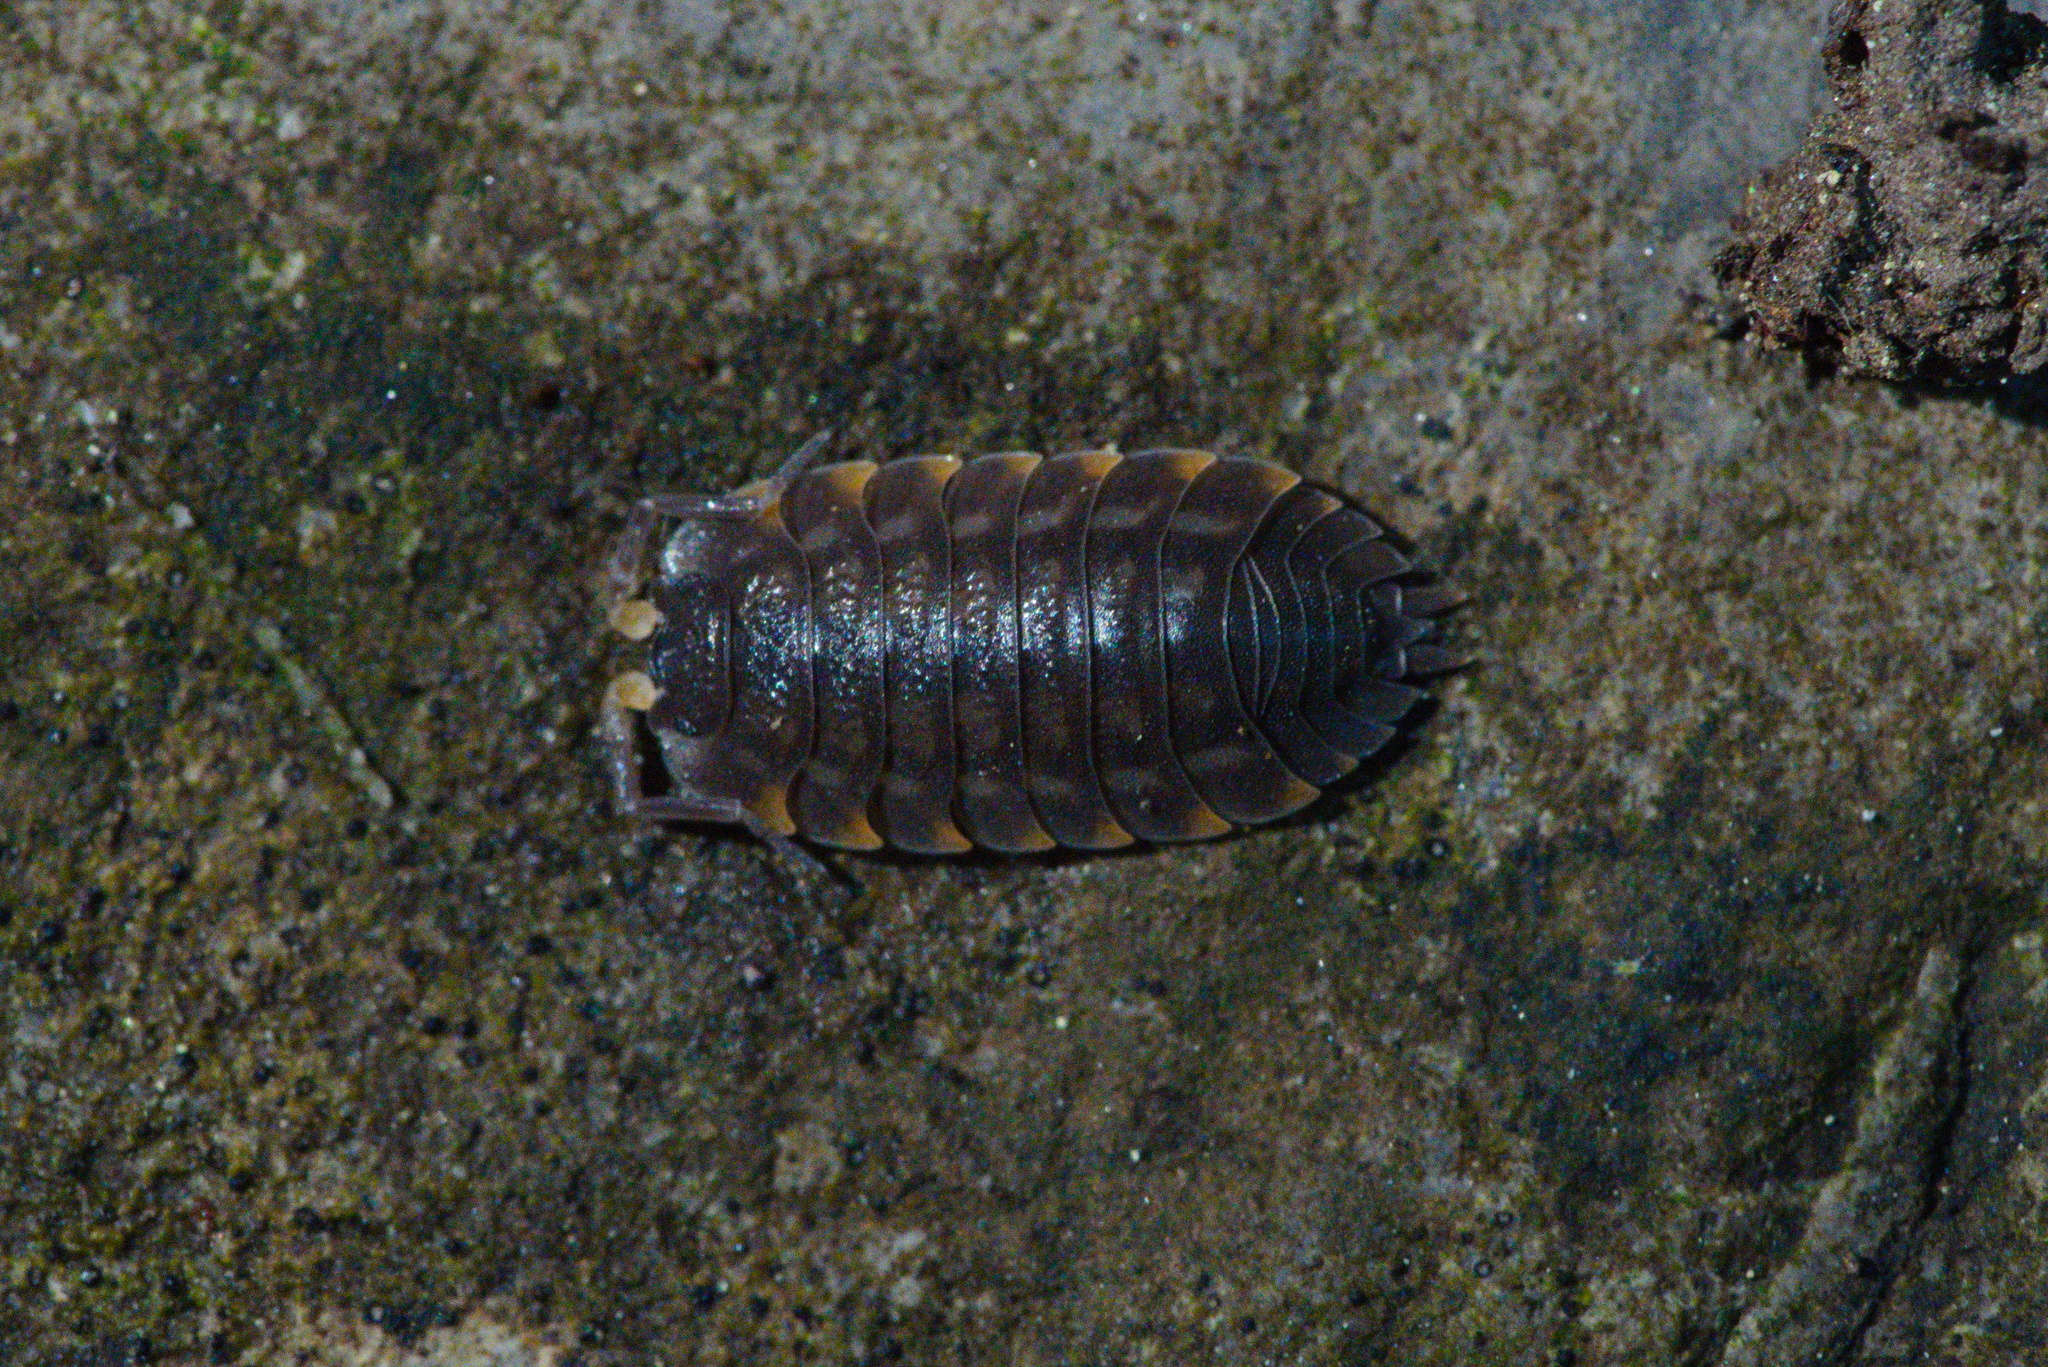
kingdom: Animalia
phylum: Arthropoda
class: Malacostraca
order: Isopoda
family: Trachelipodidae
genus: Trachelipus
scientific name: Trachelipus ratzeburgii
